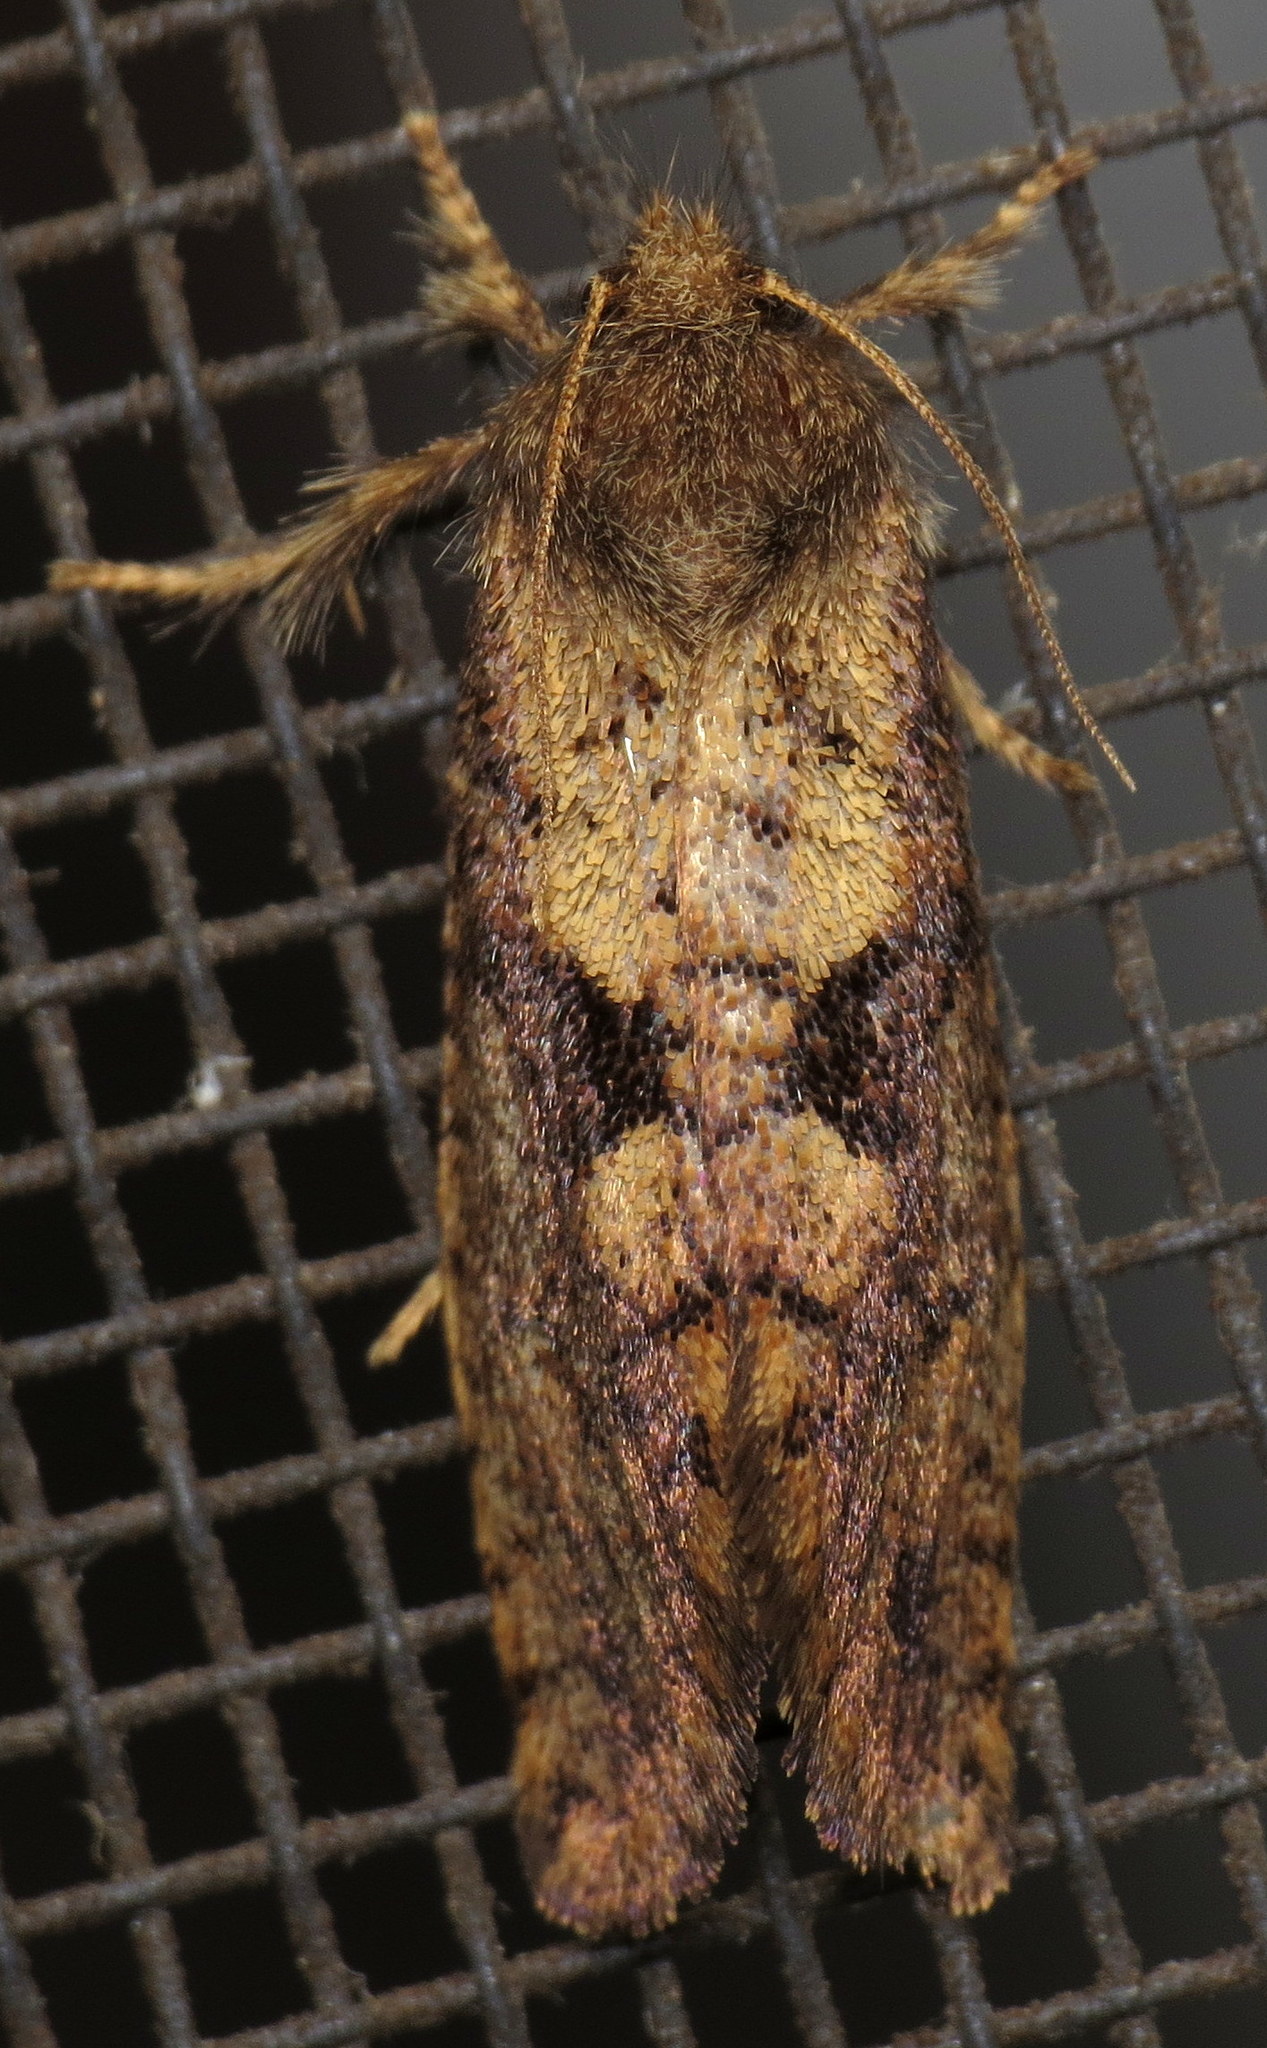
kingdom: Animalia
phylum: Arthropoda
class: Insecta
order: Lepidoptera
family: Tineidae
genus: Acrolophus
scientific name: Acrolophus mora
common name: Dark acrolophus
